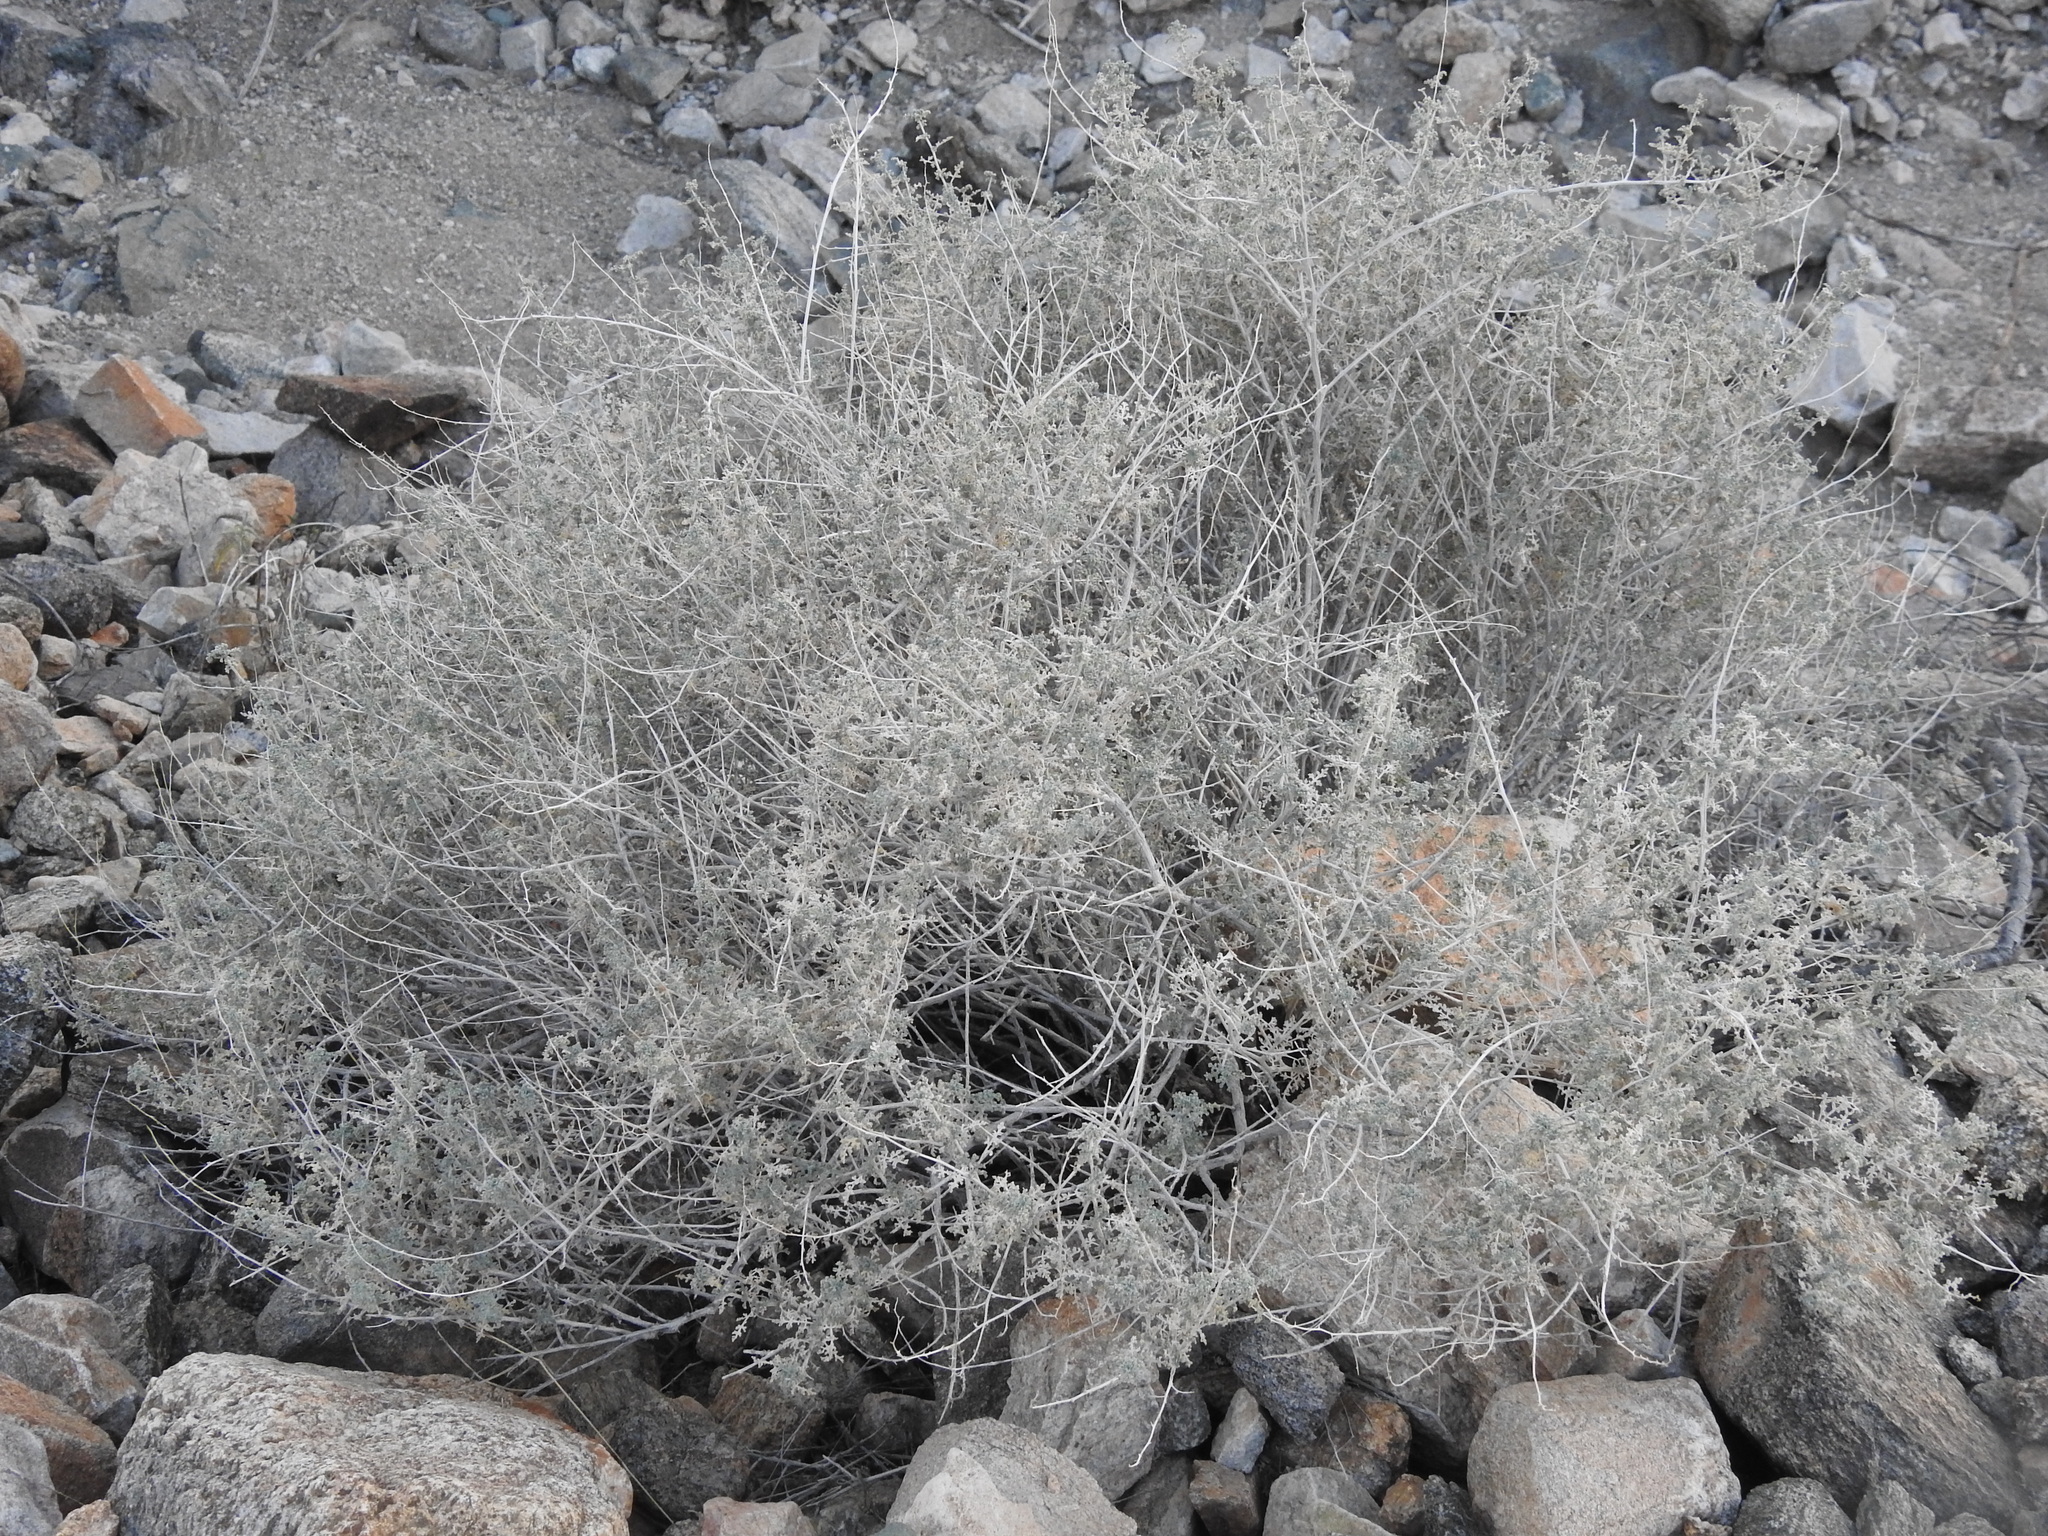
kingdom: Plantae
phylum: Tracheophyta
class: Magnoliopsida
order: Asterales
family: Asteraceae
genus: Ambrosia
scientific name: Ambrosia dumosa
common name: Bur-sage
